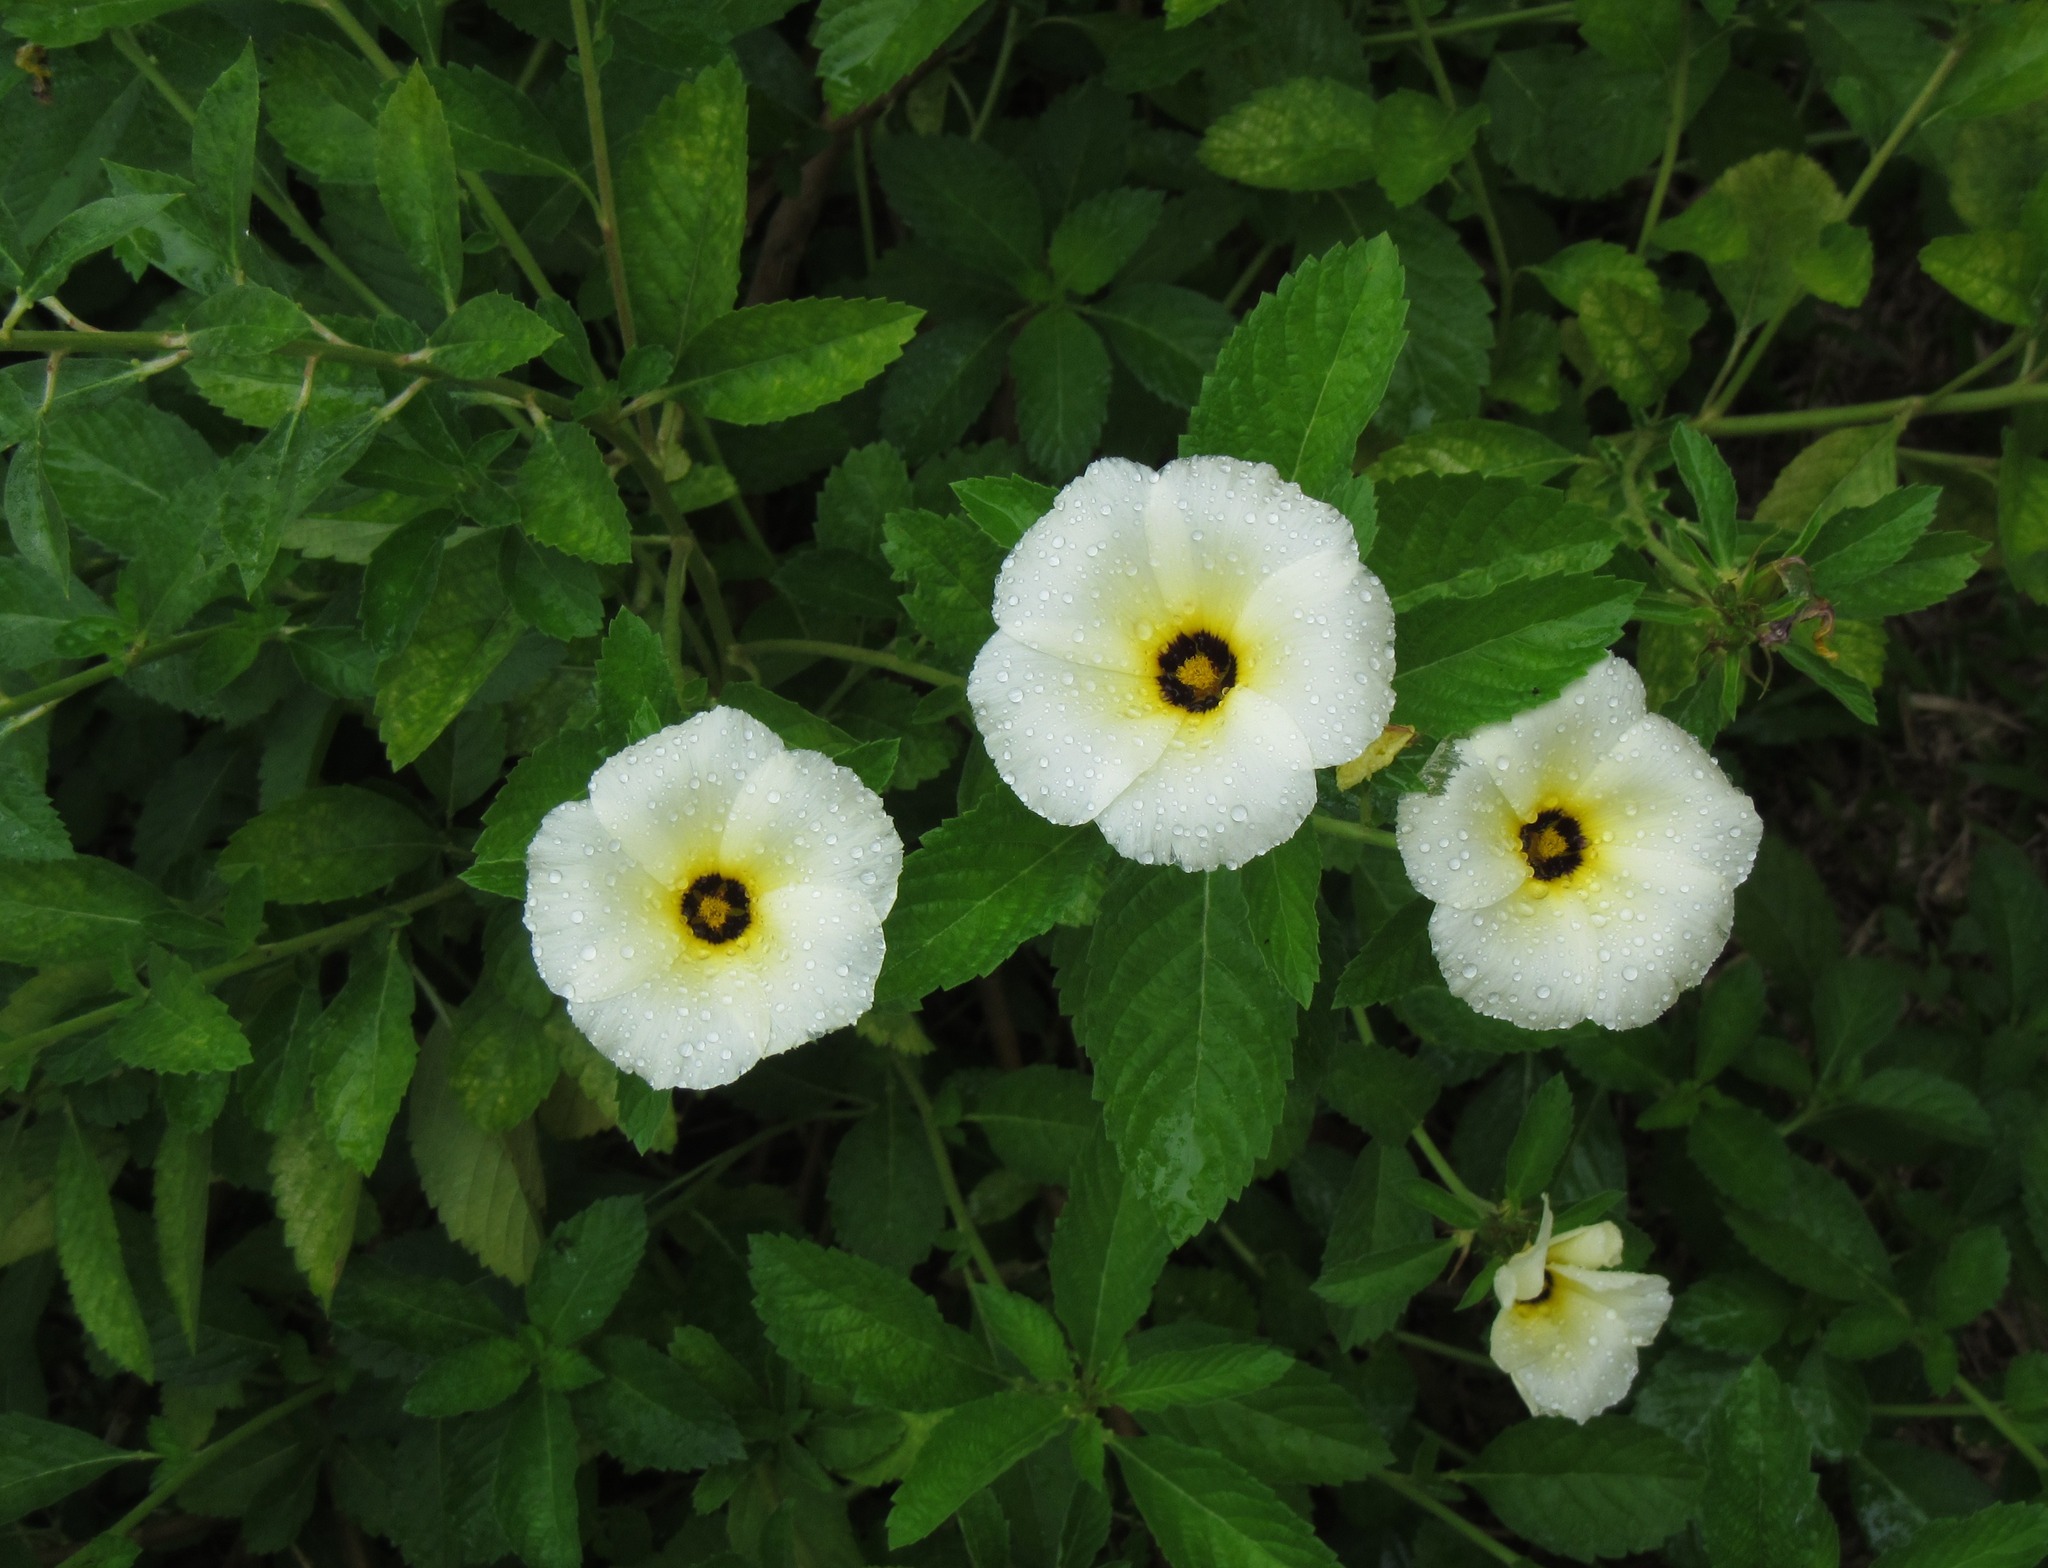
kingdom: Plantae
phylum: Tracheophyta
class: Magnoliopsida
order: Malpighiales
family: Turneraceae
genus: Turnera
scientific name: Turnera subulata
